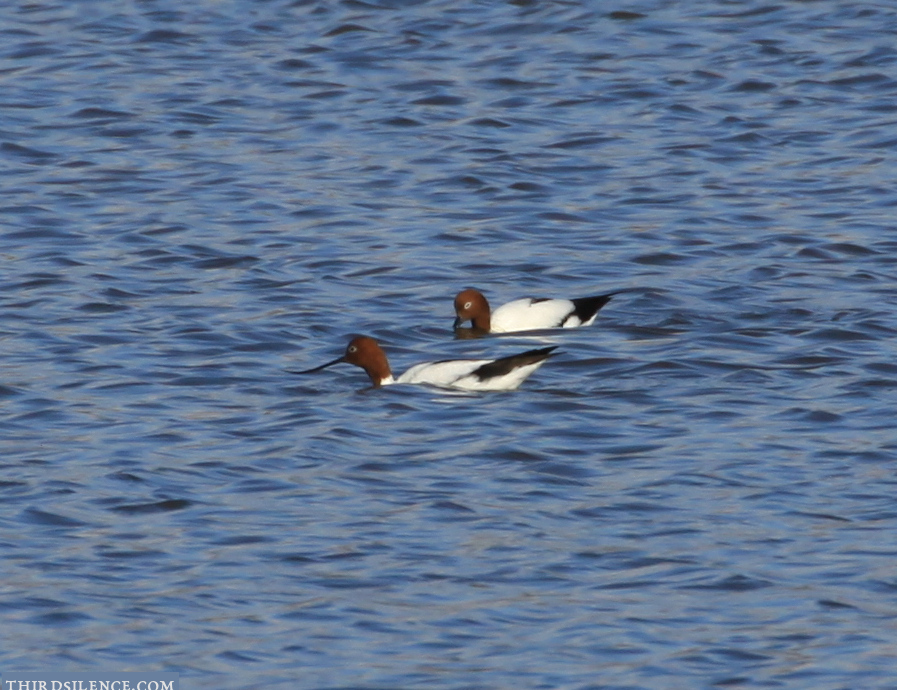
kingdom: Animalia
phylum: Chordata
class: Aves
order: Charadriiformes
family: Recurvirostridae
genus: Recurvirostra
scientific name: Recurvirostra novaehollandiae
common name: Red-necked avocet
